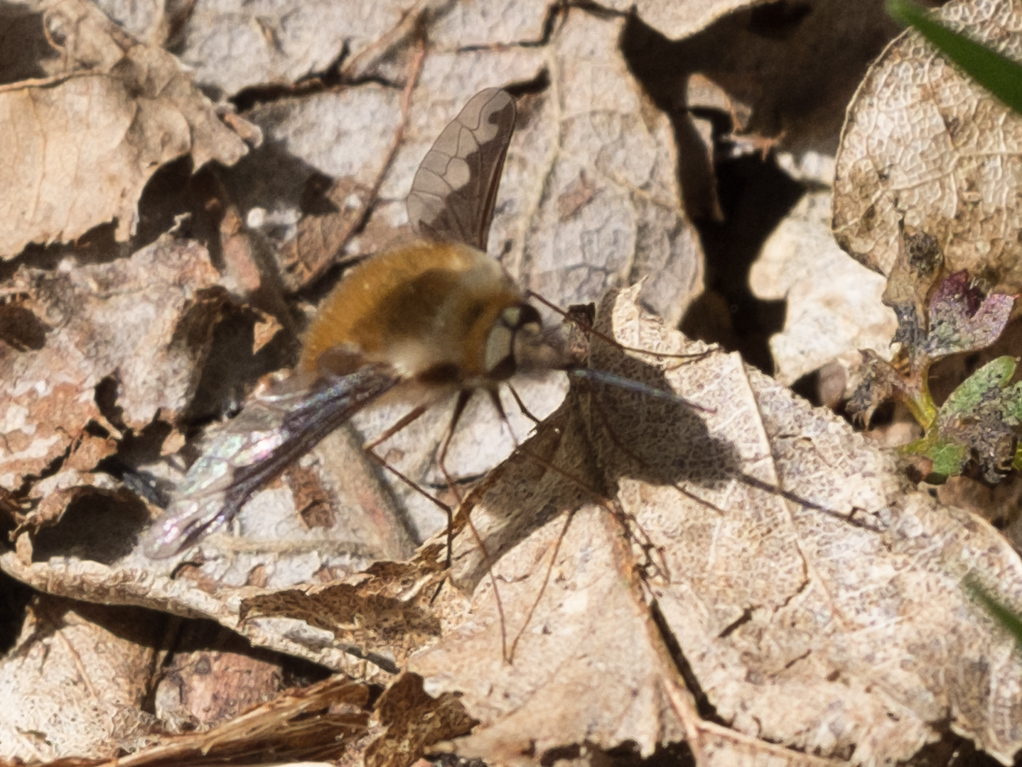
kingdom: Animalia
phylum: Arthropoda
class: Insecta
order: Diptera
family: Bombyliidae
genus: Bombylius
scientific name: Bombylius major
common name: Bee fly
